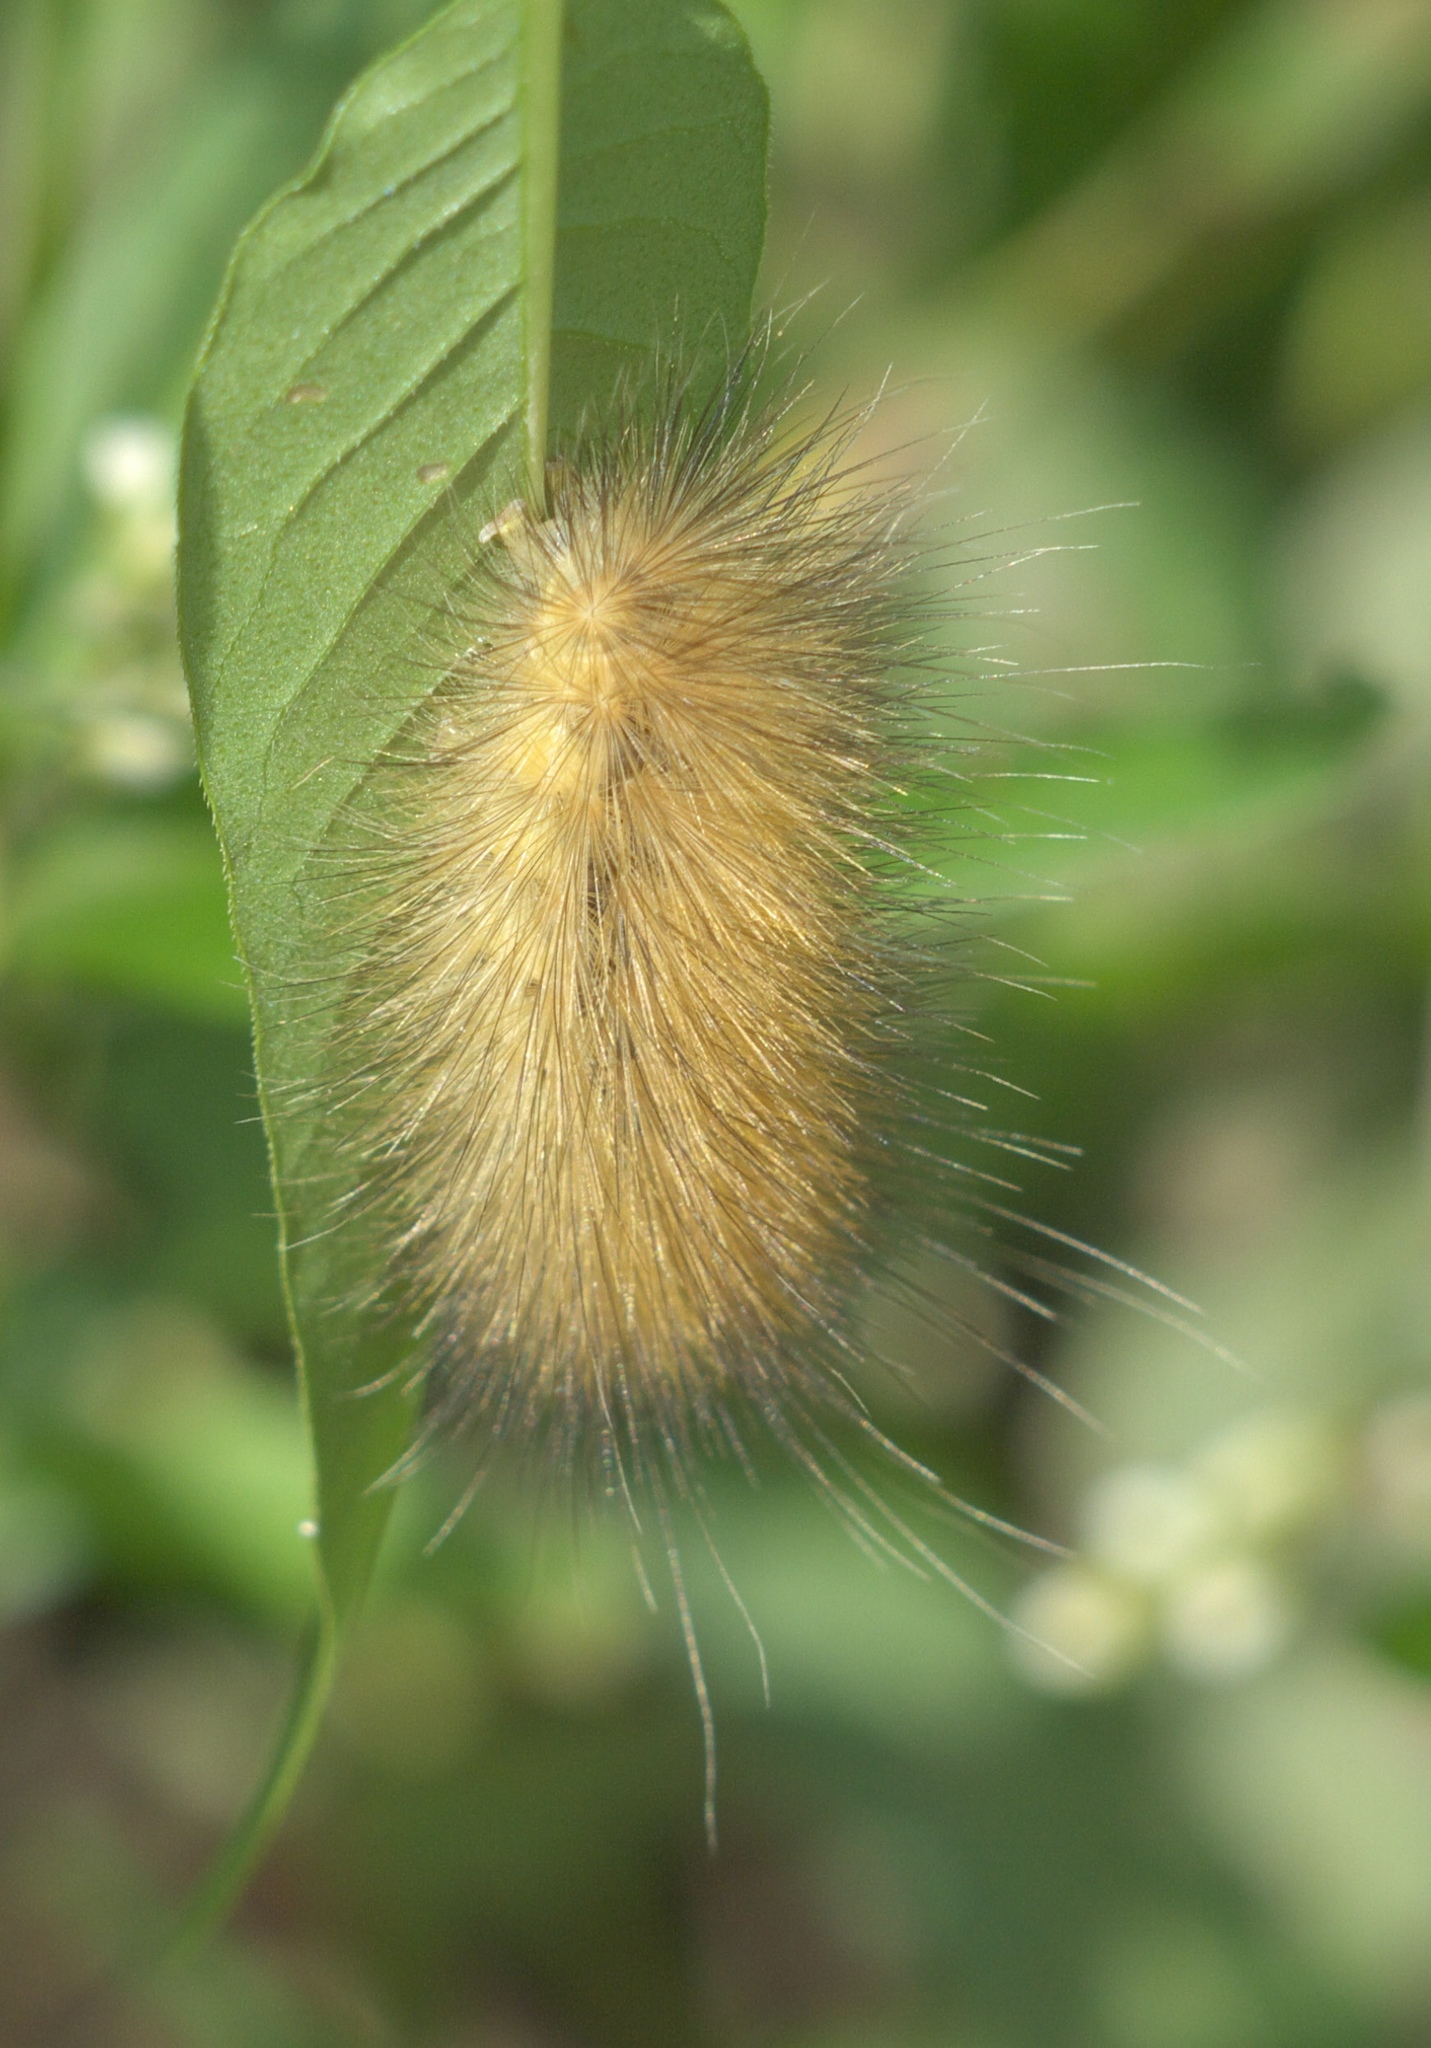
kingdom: Animalia
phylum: Arthropoda
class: Insecta
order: Lepidoptera
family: Erebidae
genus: Spilosoma
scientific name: Spilosoma virginica
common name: Virginia tiger moth
